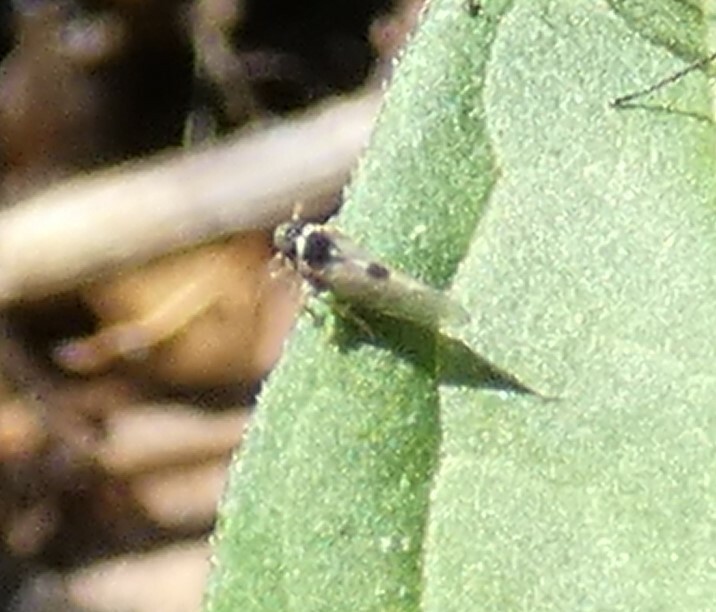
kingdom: Animalia
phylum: Arthropoda
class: Insecta
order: Hemiptera
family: Delphacidae
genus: Chionomus
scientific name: Chionomus
